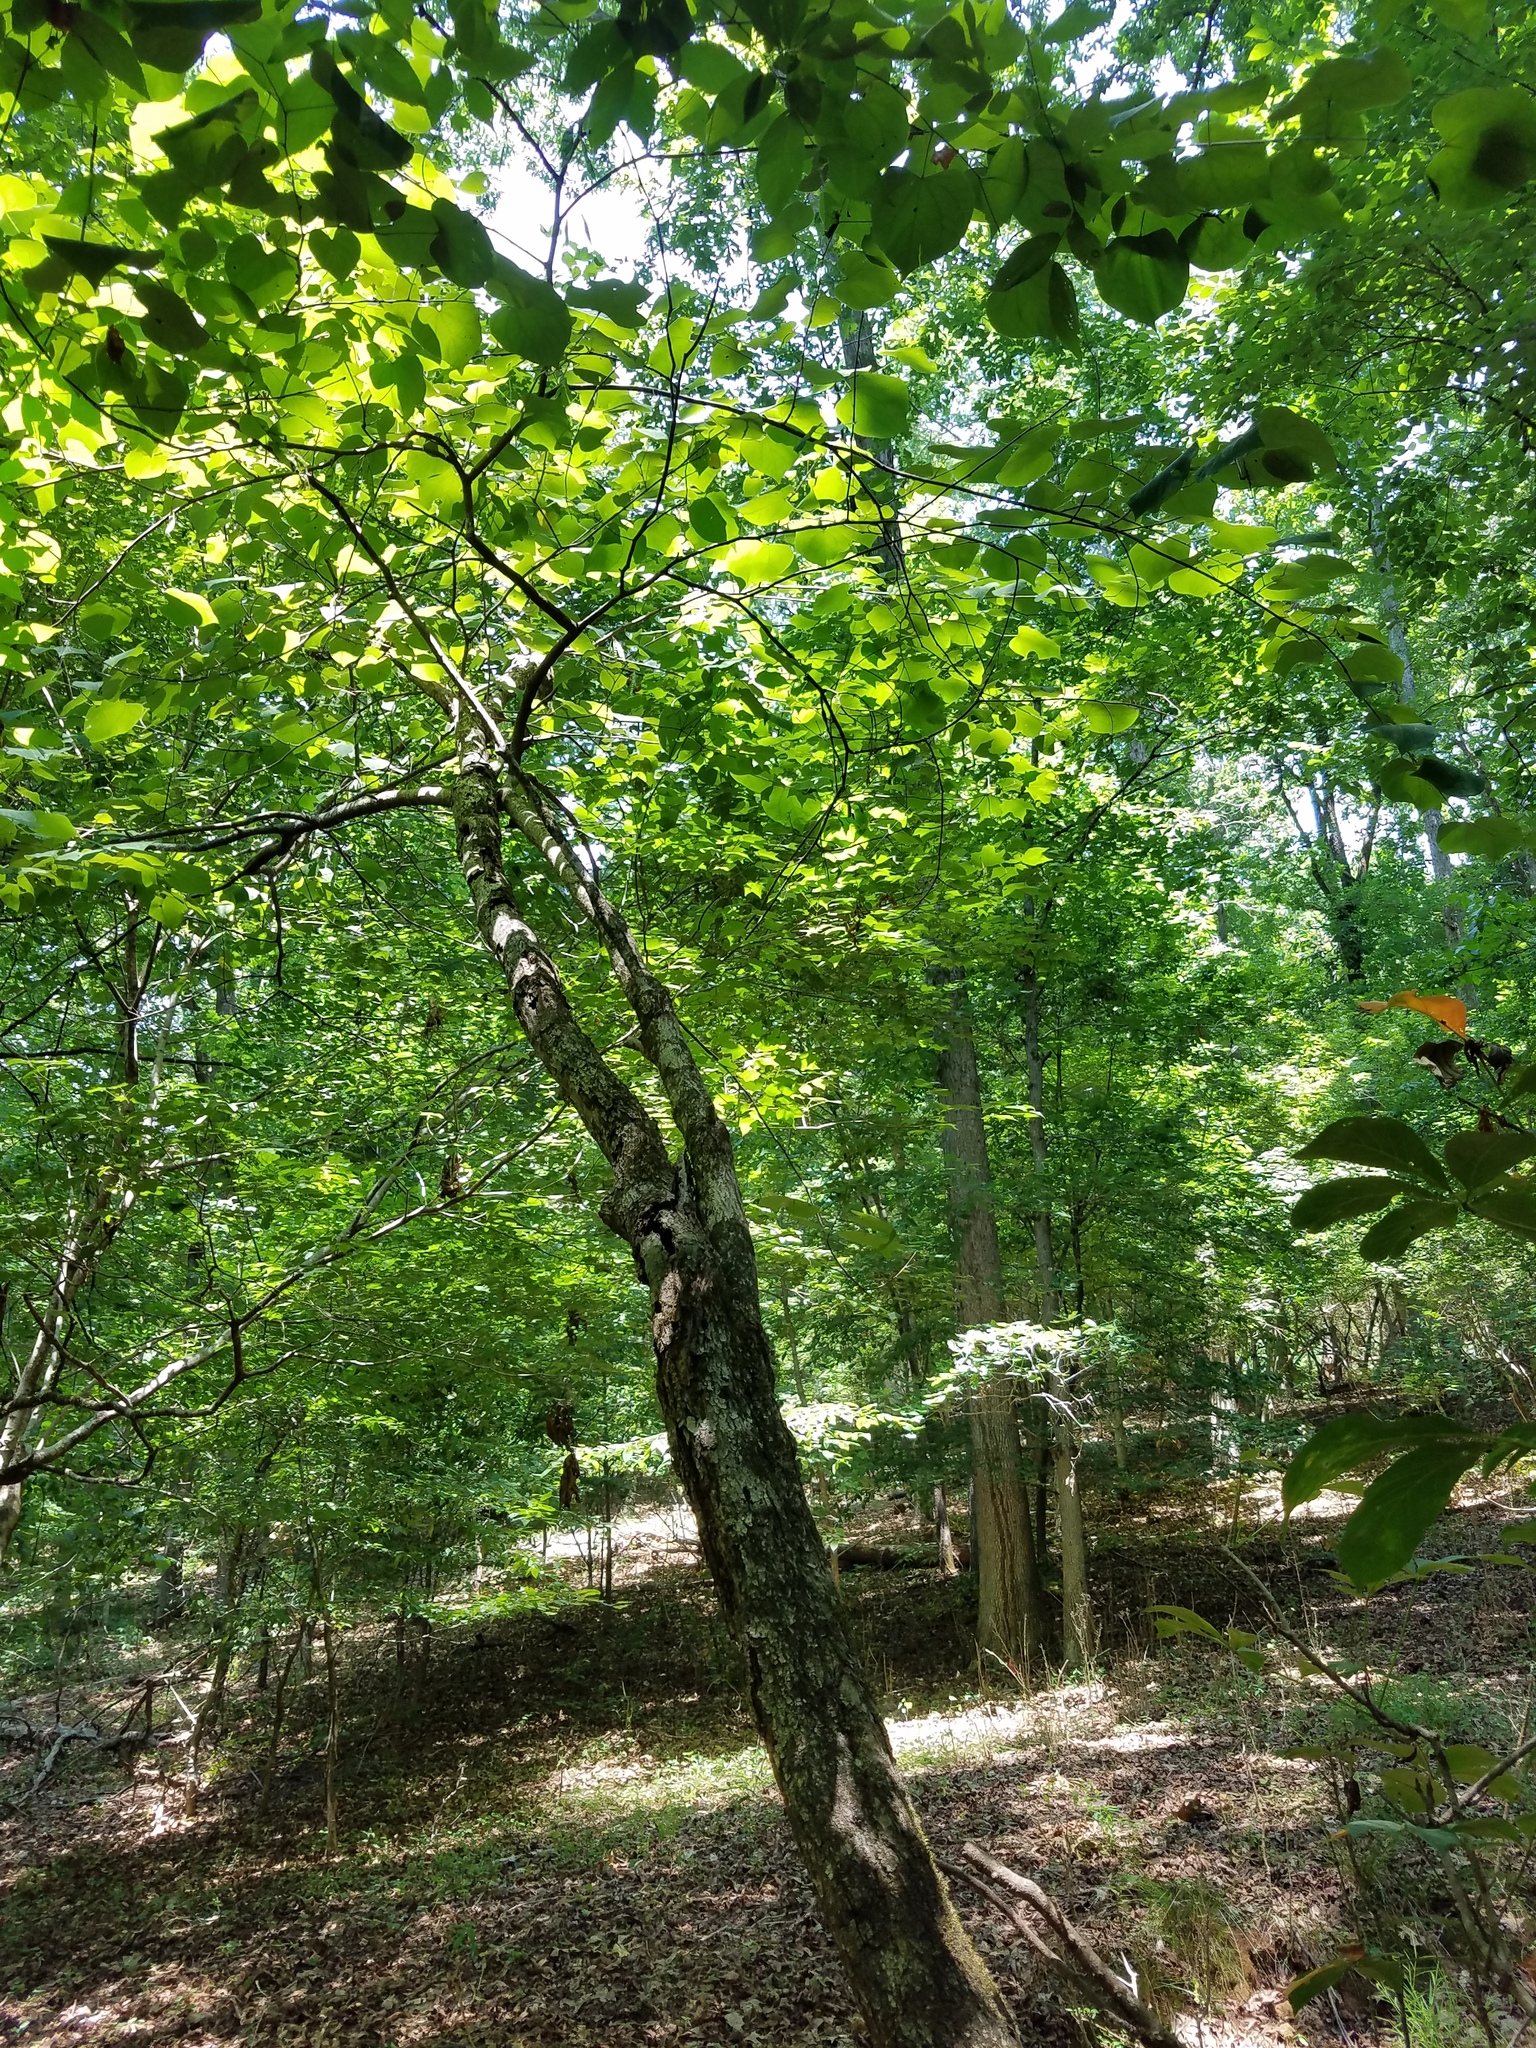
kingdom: Plantae
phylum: Tracheophyta
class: Magnoliopsida
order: Fabales
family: Fabaceae
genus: Cercis
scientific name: Cercis canadensis
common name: Eastern redbud
